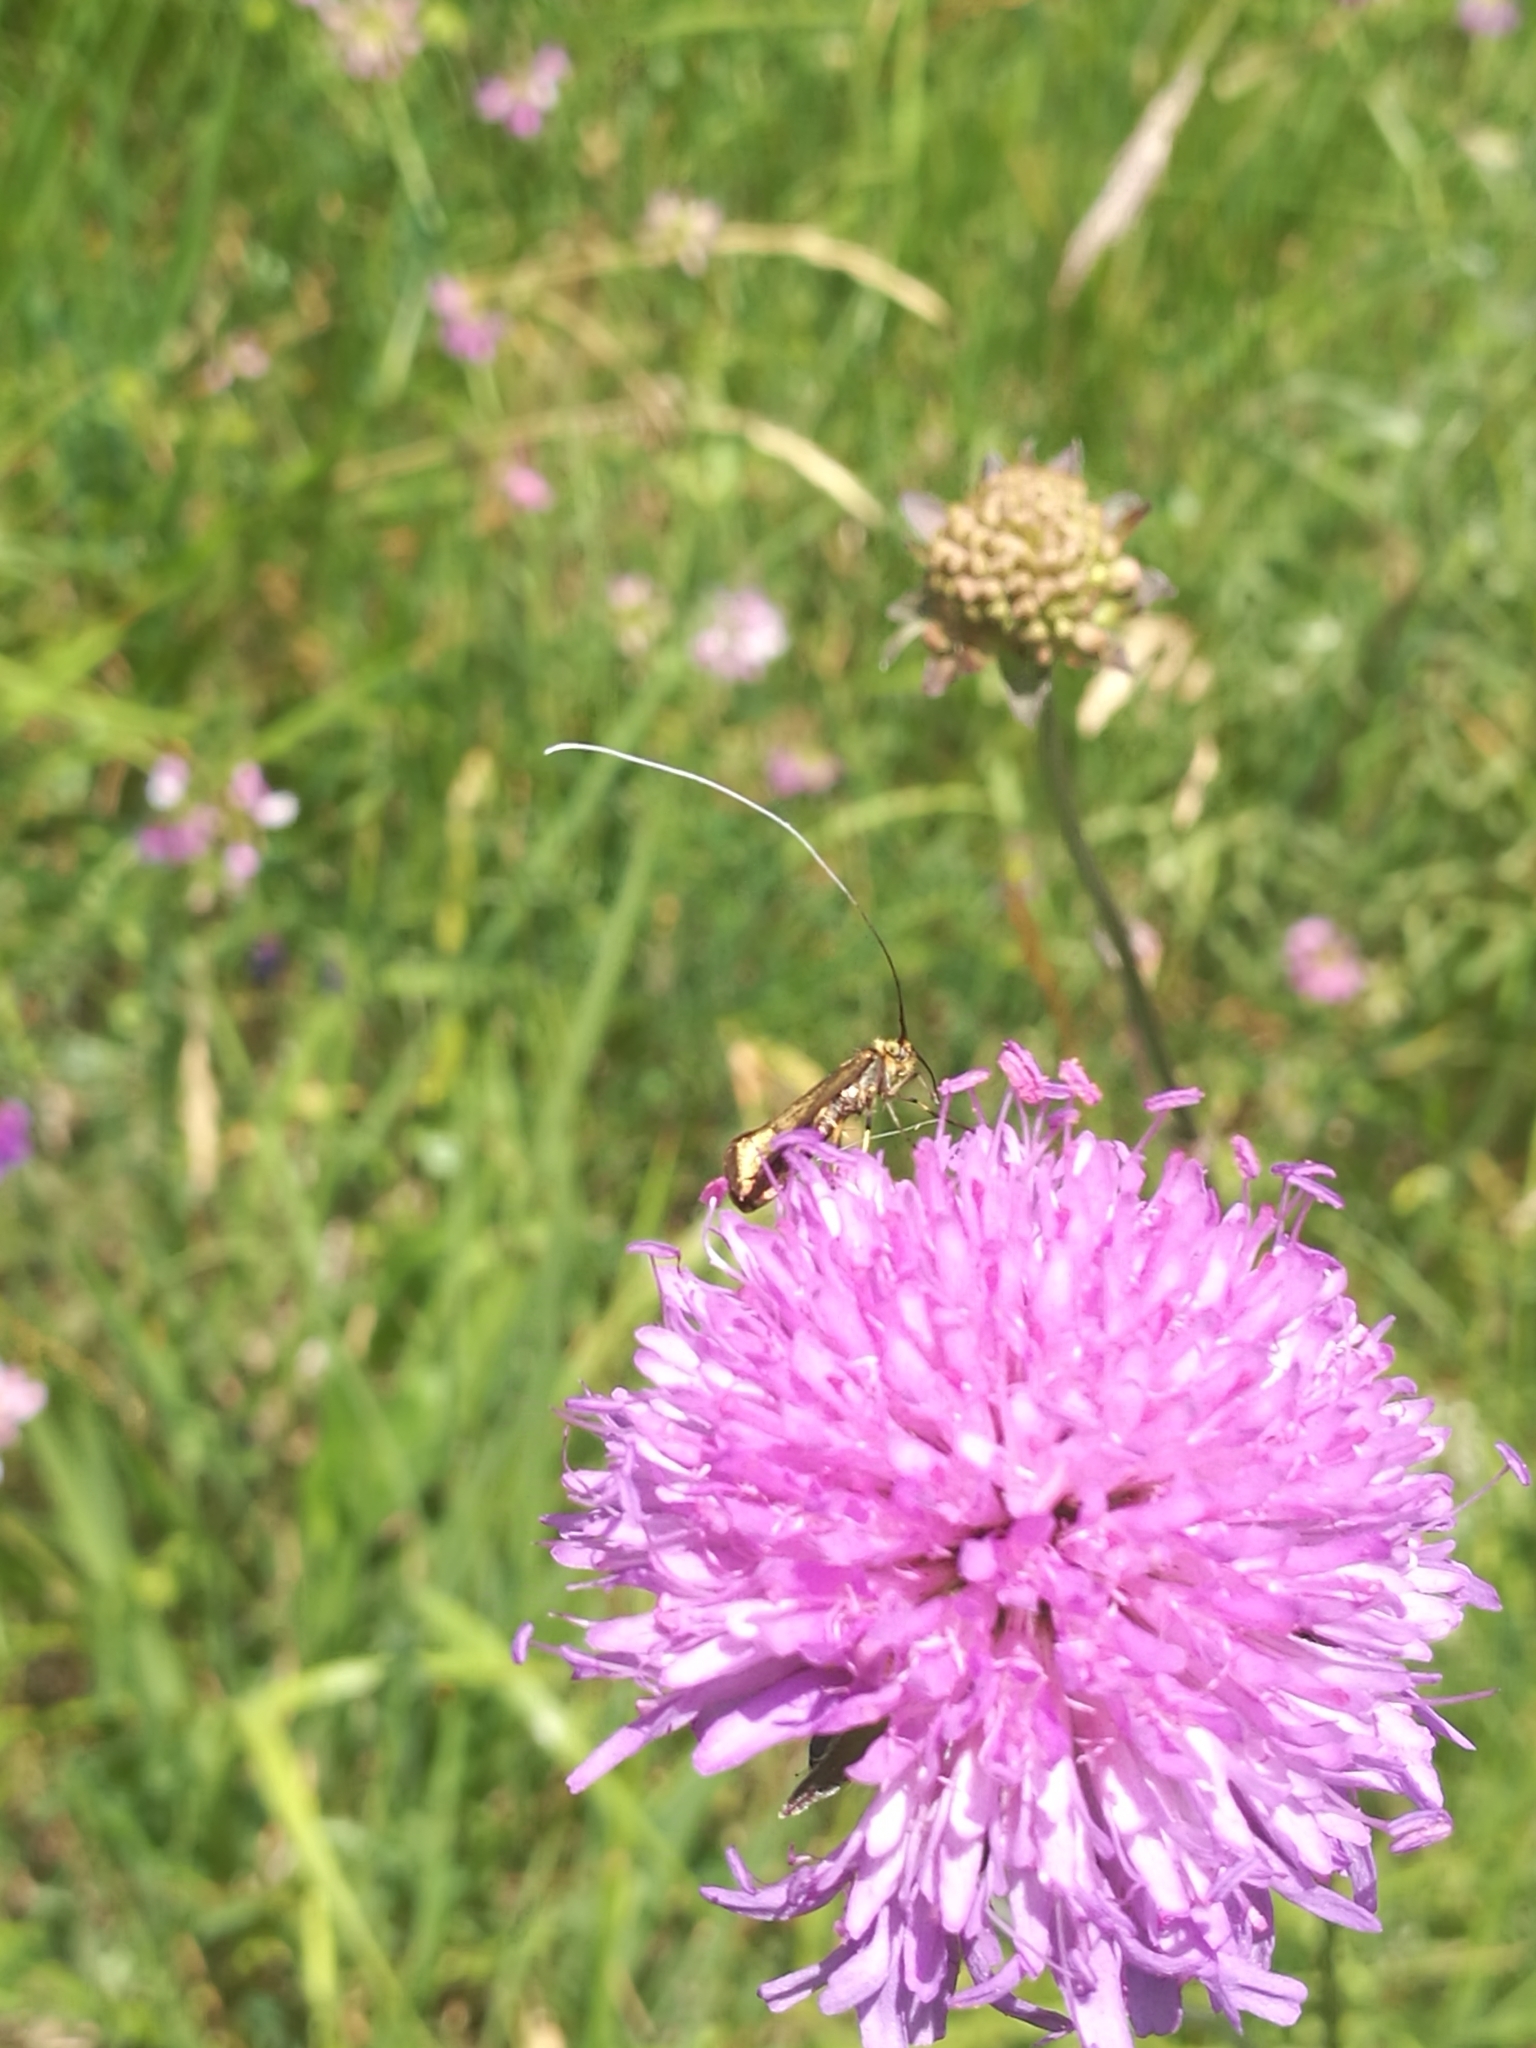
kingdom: Animalia
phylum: Arthropoda
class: Insecta
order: Lepidoptera
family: Adelidae
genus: Nemophora
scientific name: Nemophora metallica
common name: Brassy long-horn
